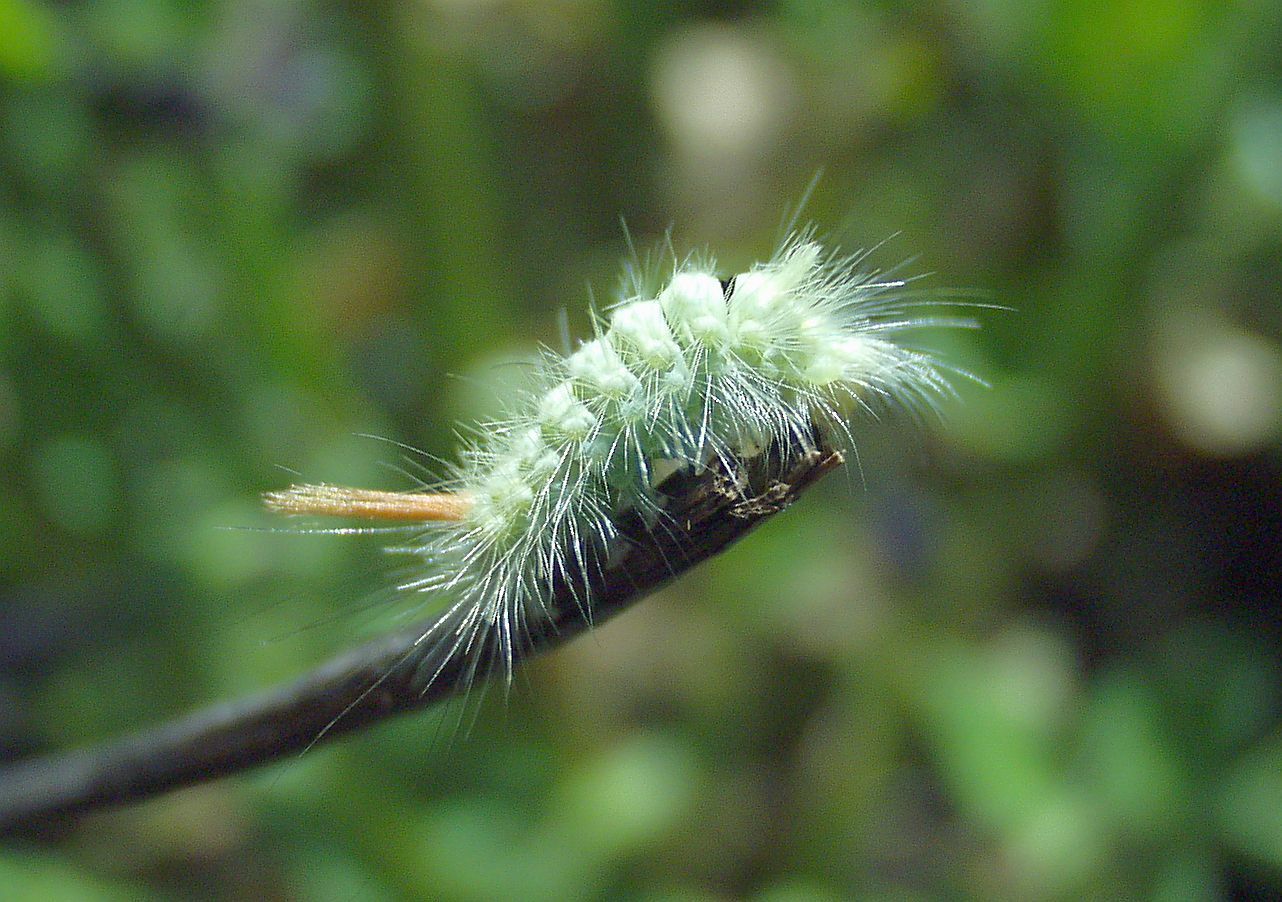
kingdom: Animalia
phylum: Arthropoda
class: Insecta
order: Lepidoptera
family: Erebidae
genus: Calliteara
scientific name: Calliteara pudibunda
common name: Pale tussock
